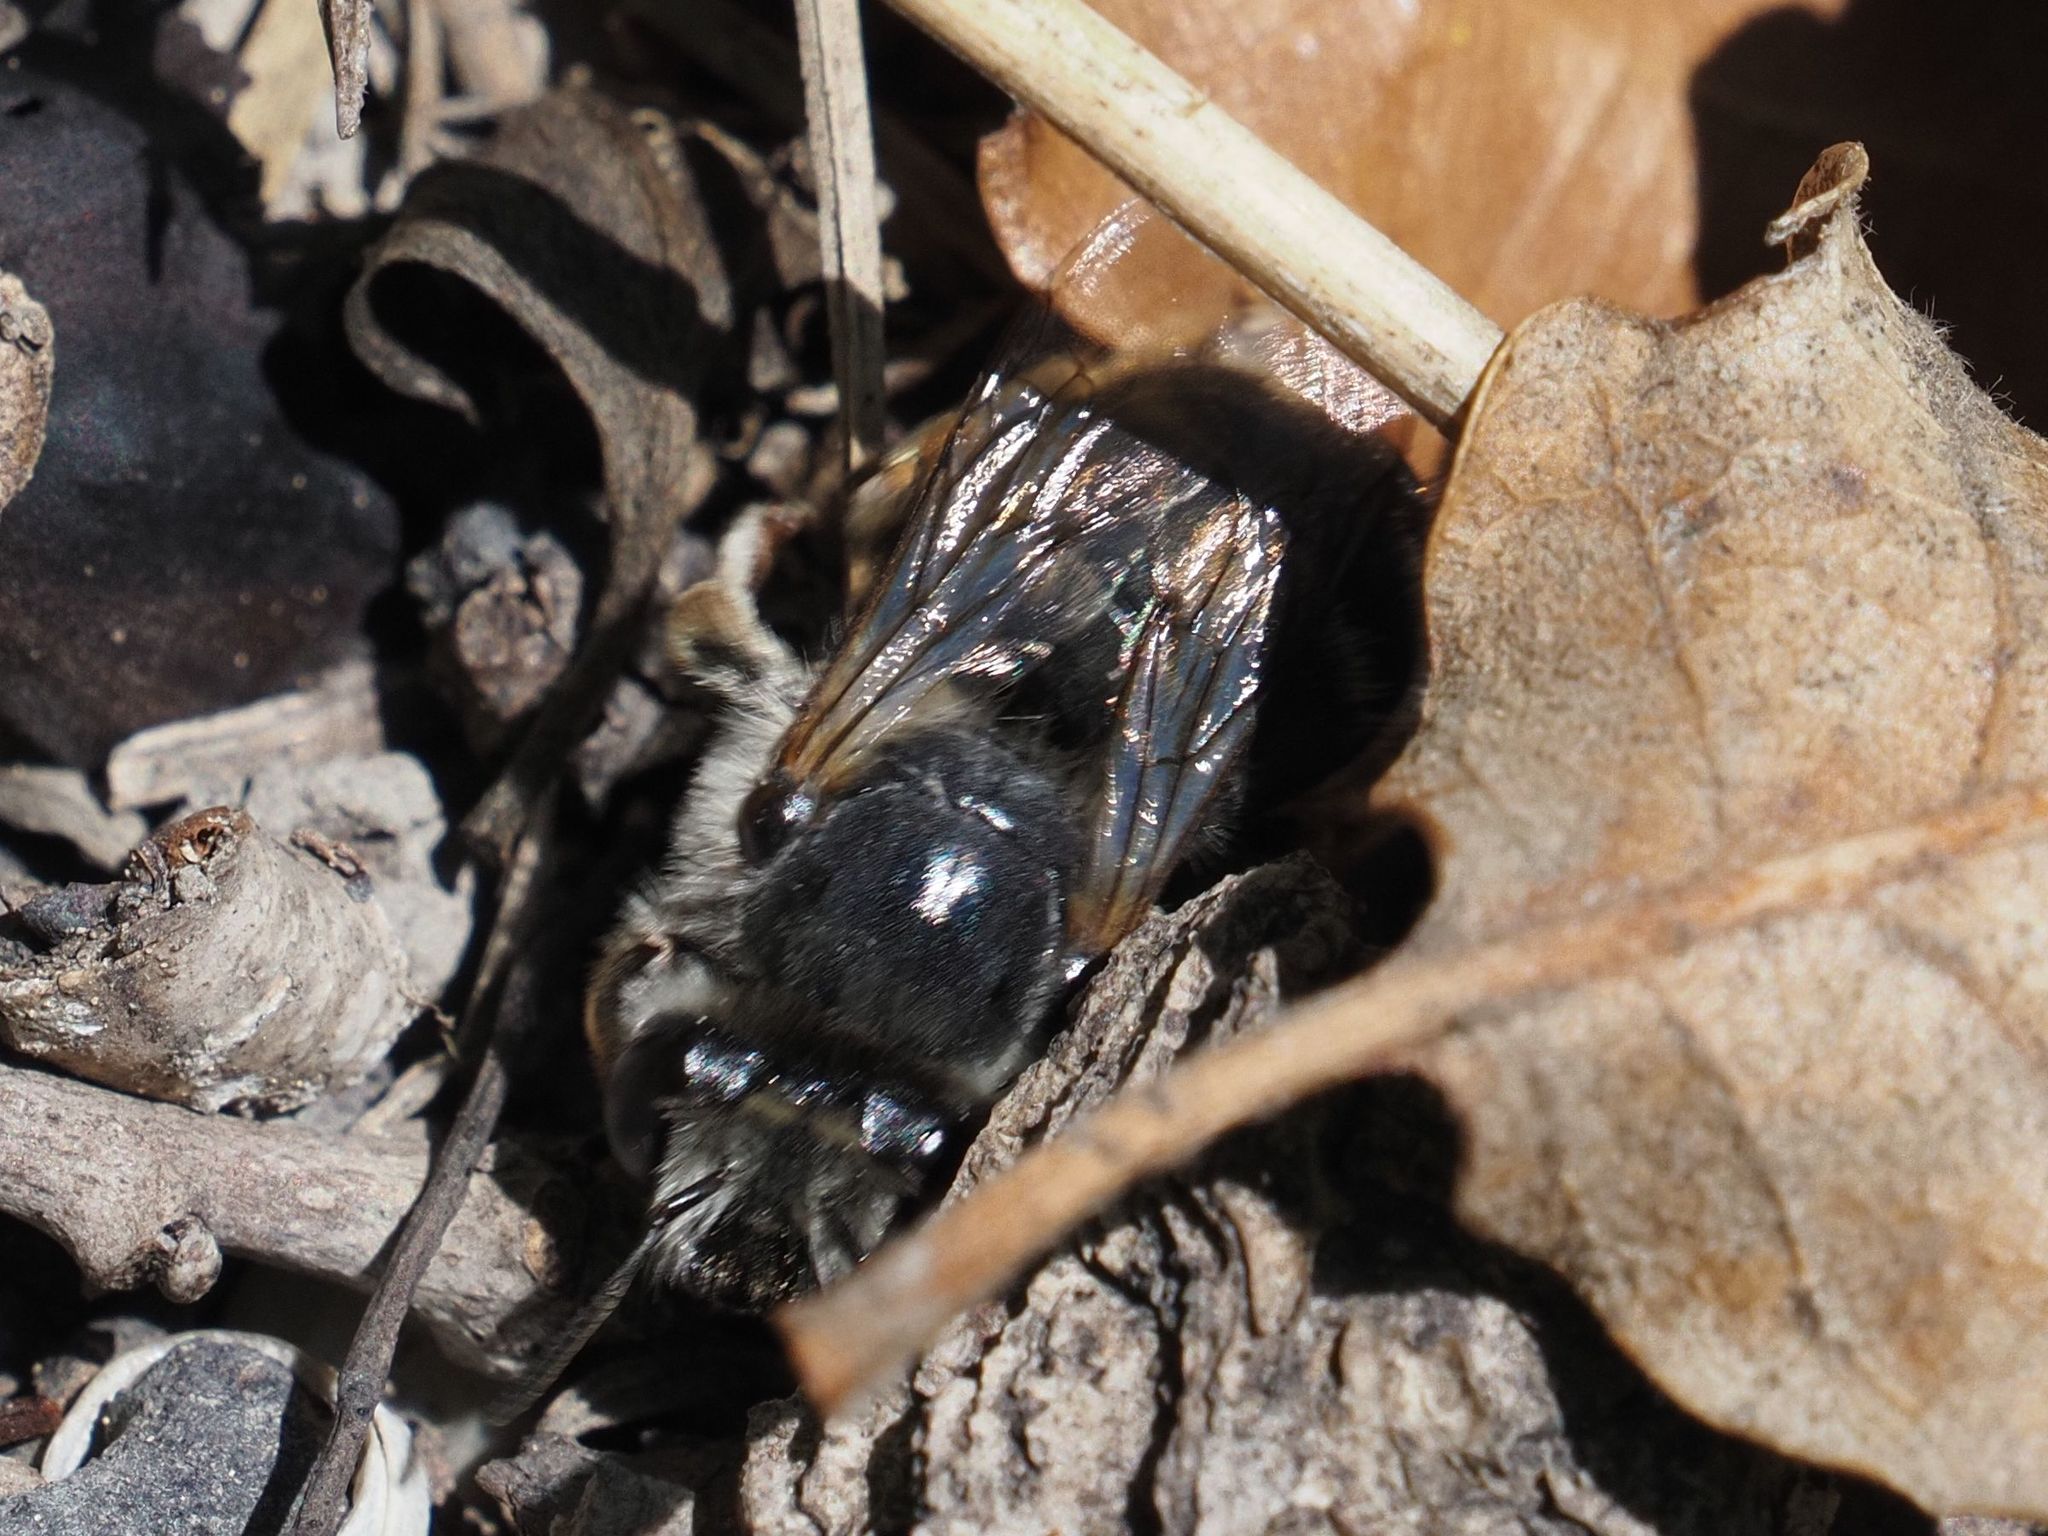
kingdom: Animalia
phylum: Arthropoda
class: Insecta
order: Orthoptera
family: Acrididae
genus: Calliptamus
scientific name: Calliptamus italicus
